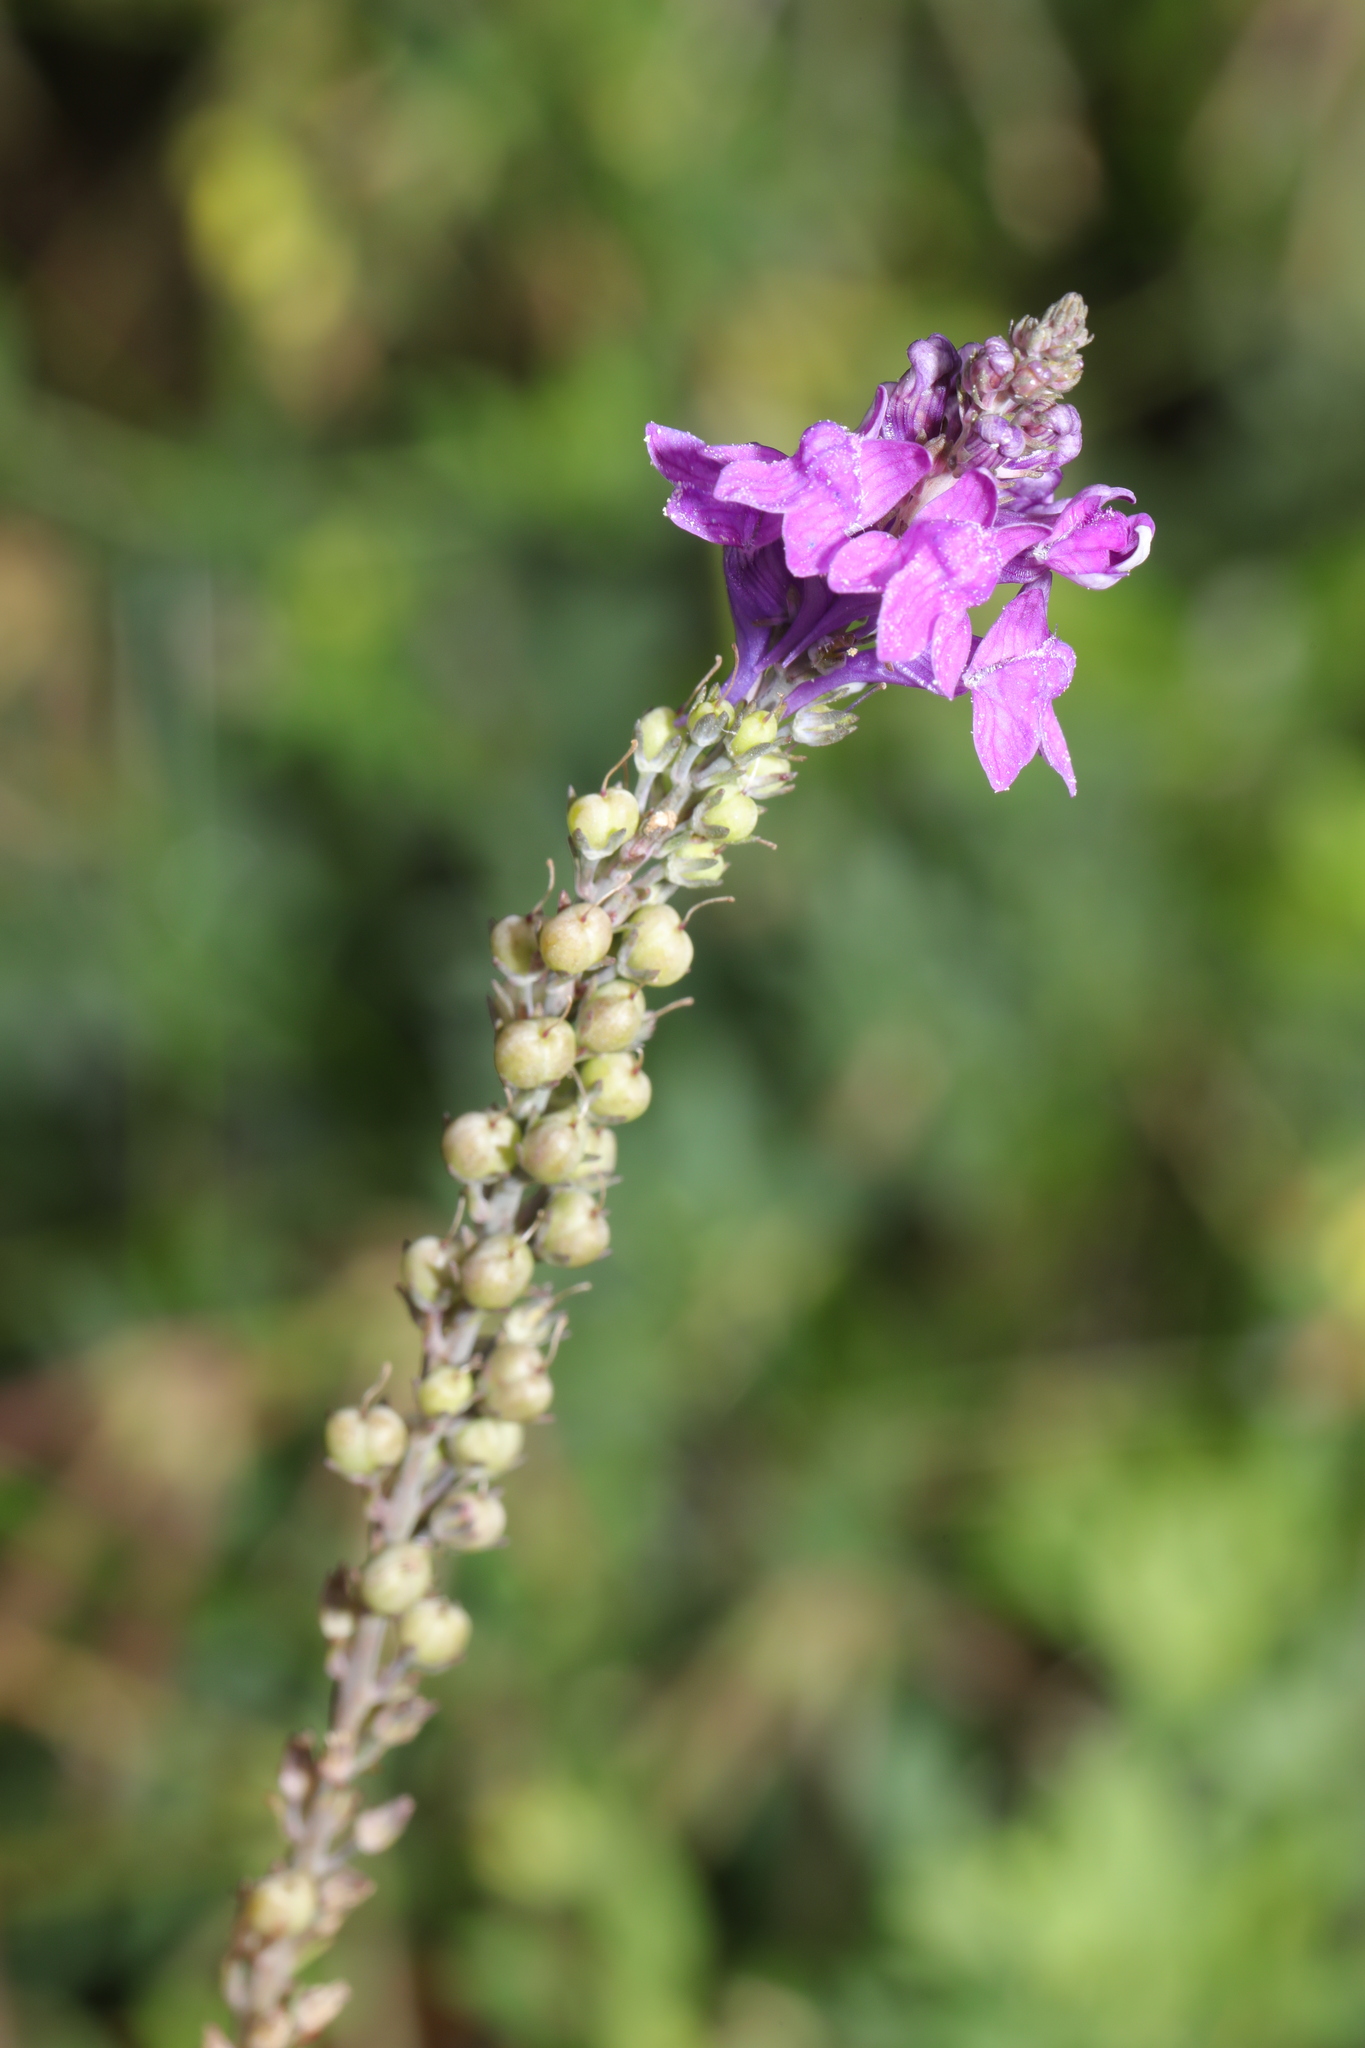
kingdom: Plantae
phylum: Tracheophyta
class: Magnoliopsida
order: Lamiales
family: Plantaginaceae
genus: Linaria
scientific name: Linaria purpurea
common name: Purple toadflax
